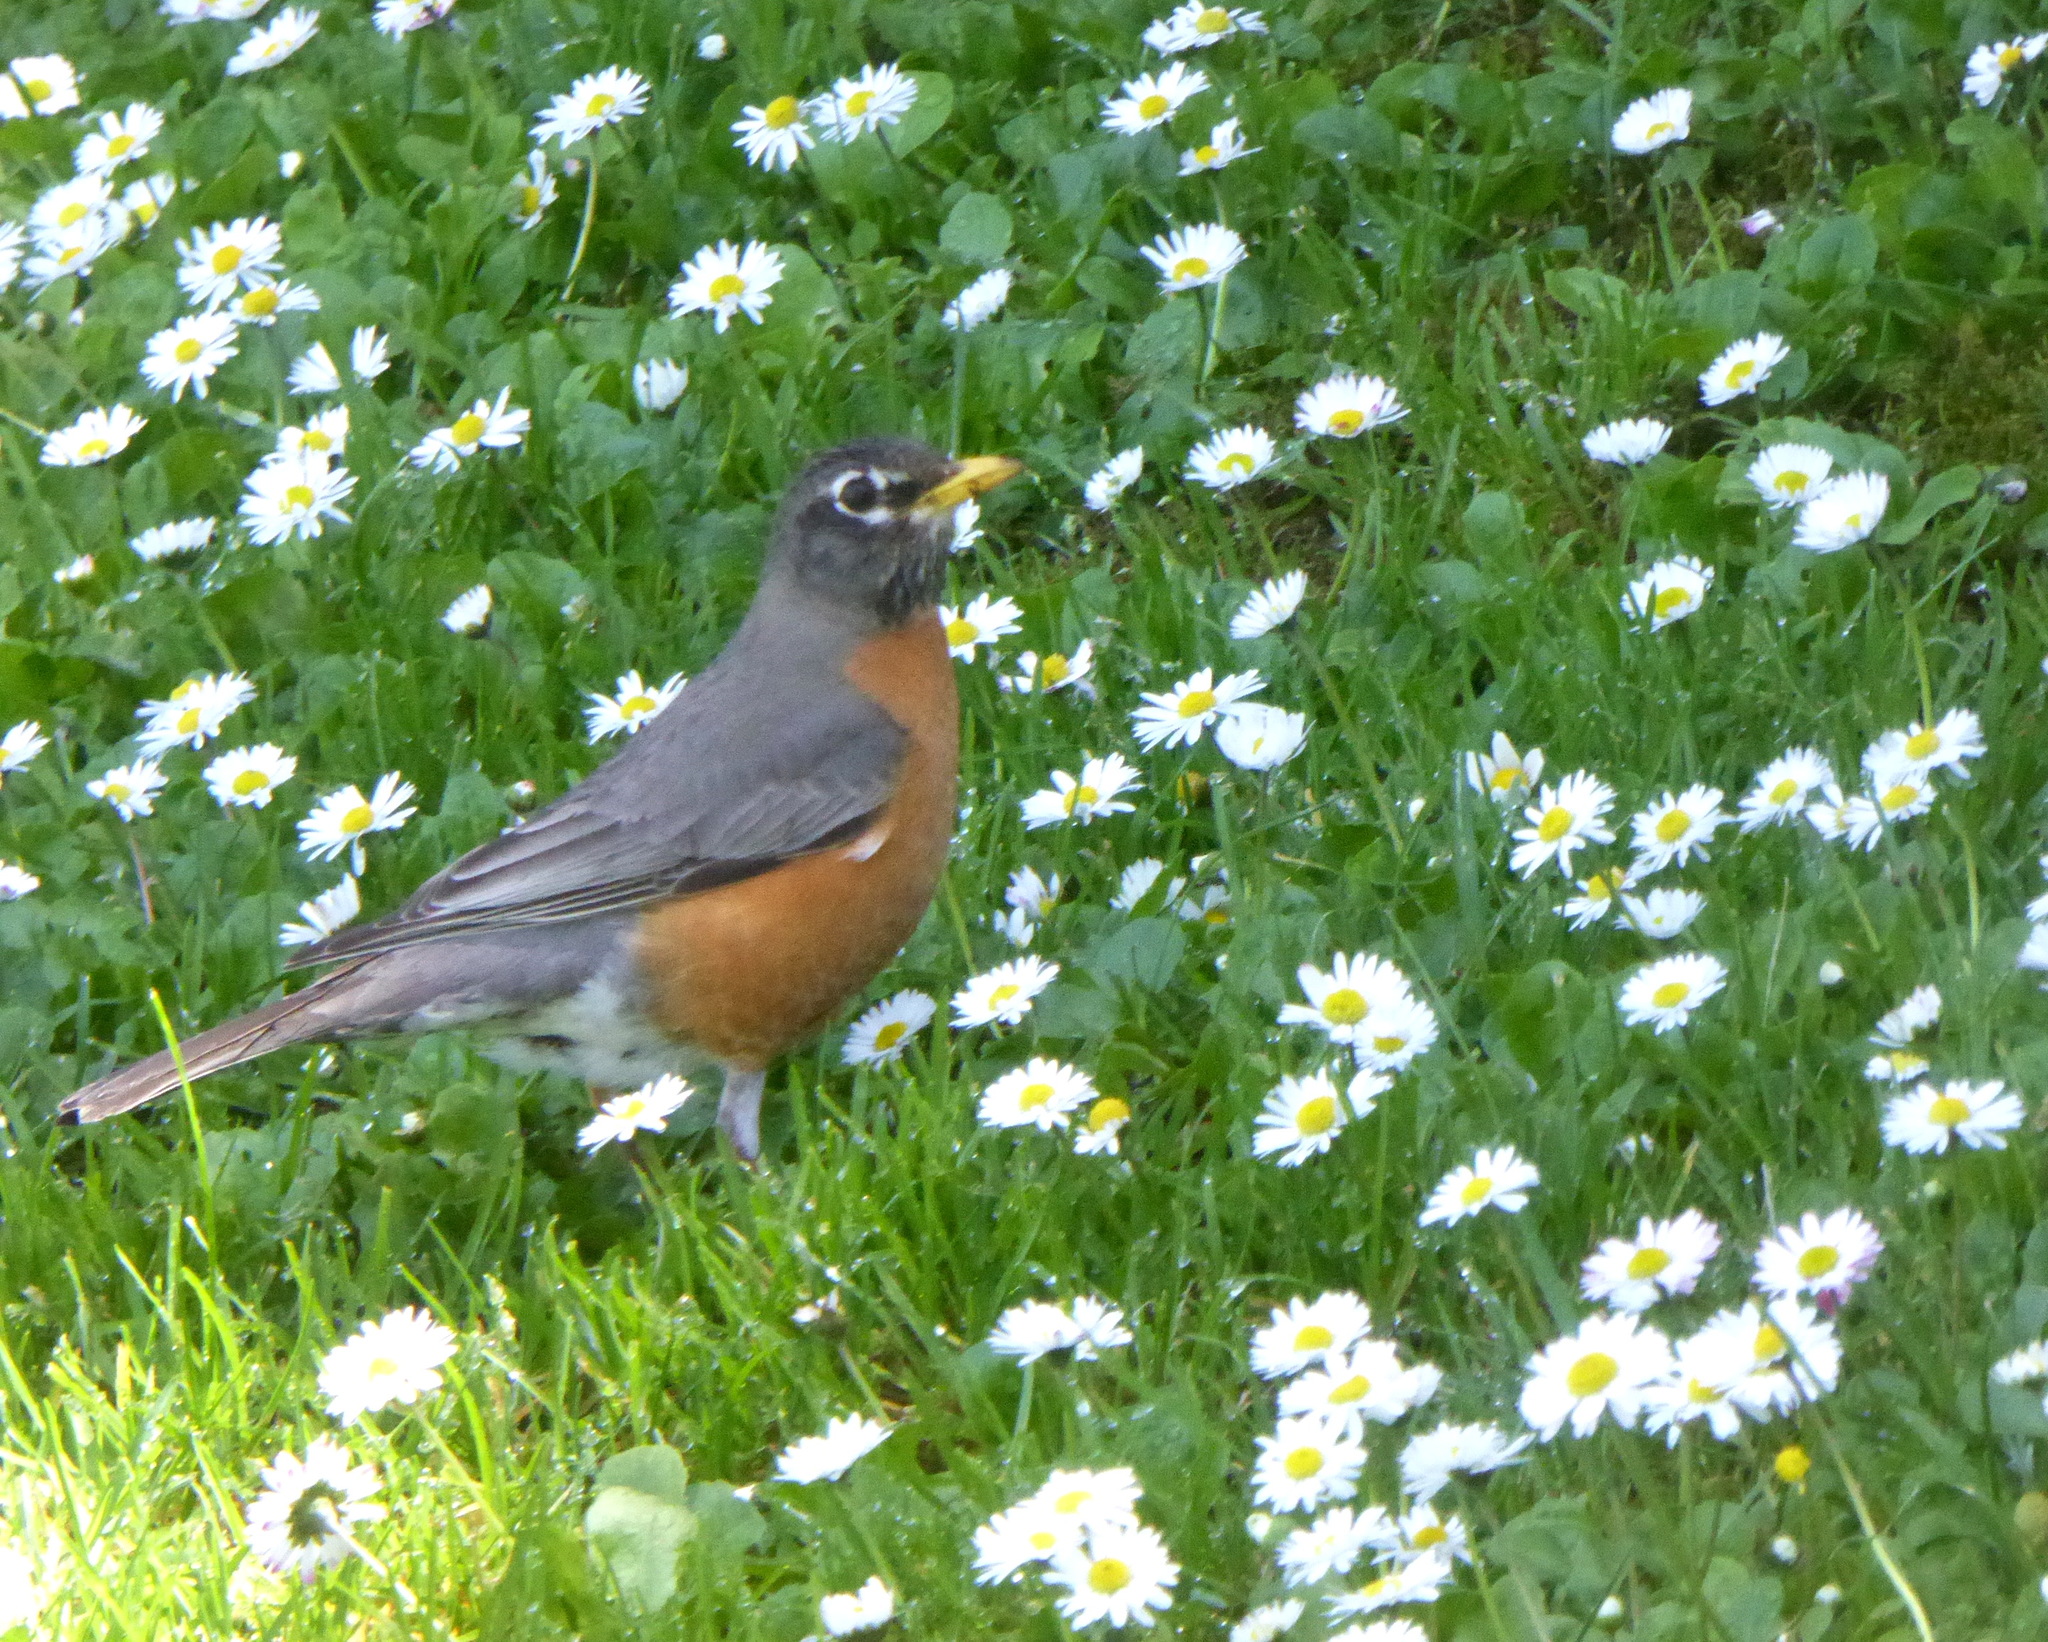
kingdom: Animalia
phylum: Chordata
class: Aves
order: Passeriformes
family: Turdidae
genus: Turdus
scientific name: Turdus migratorius
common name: American robin
